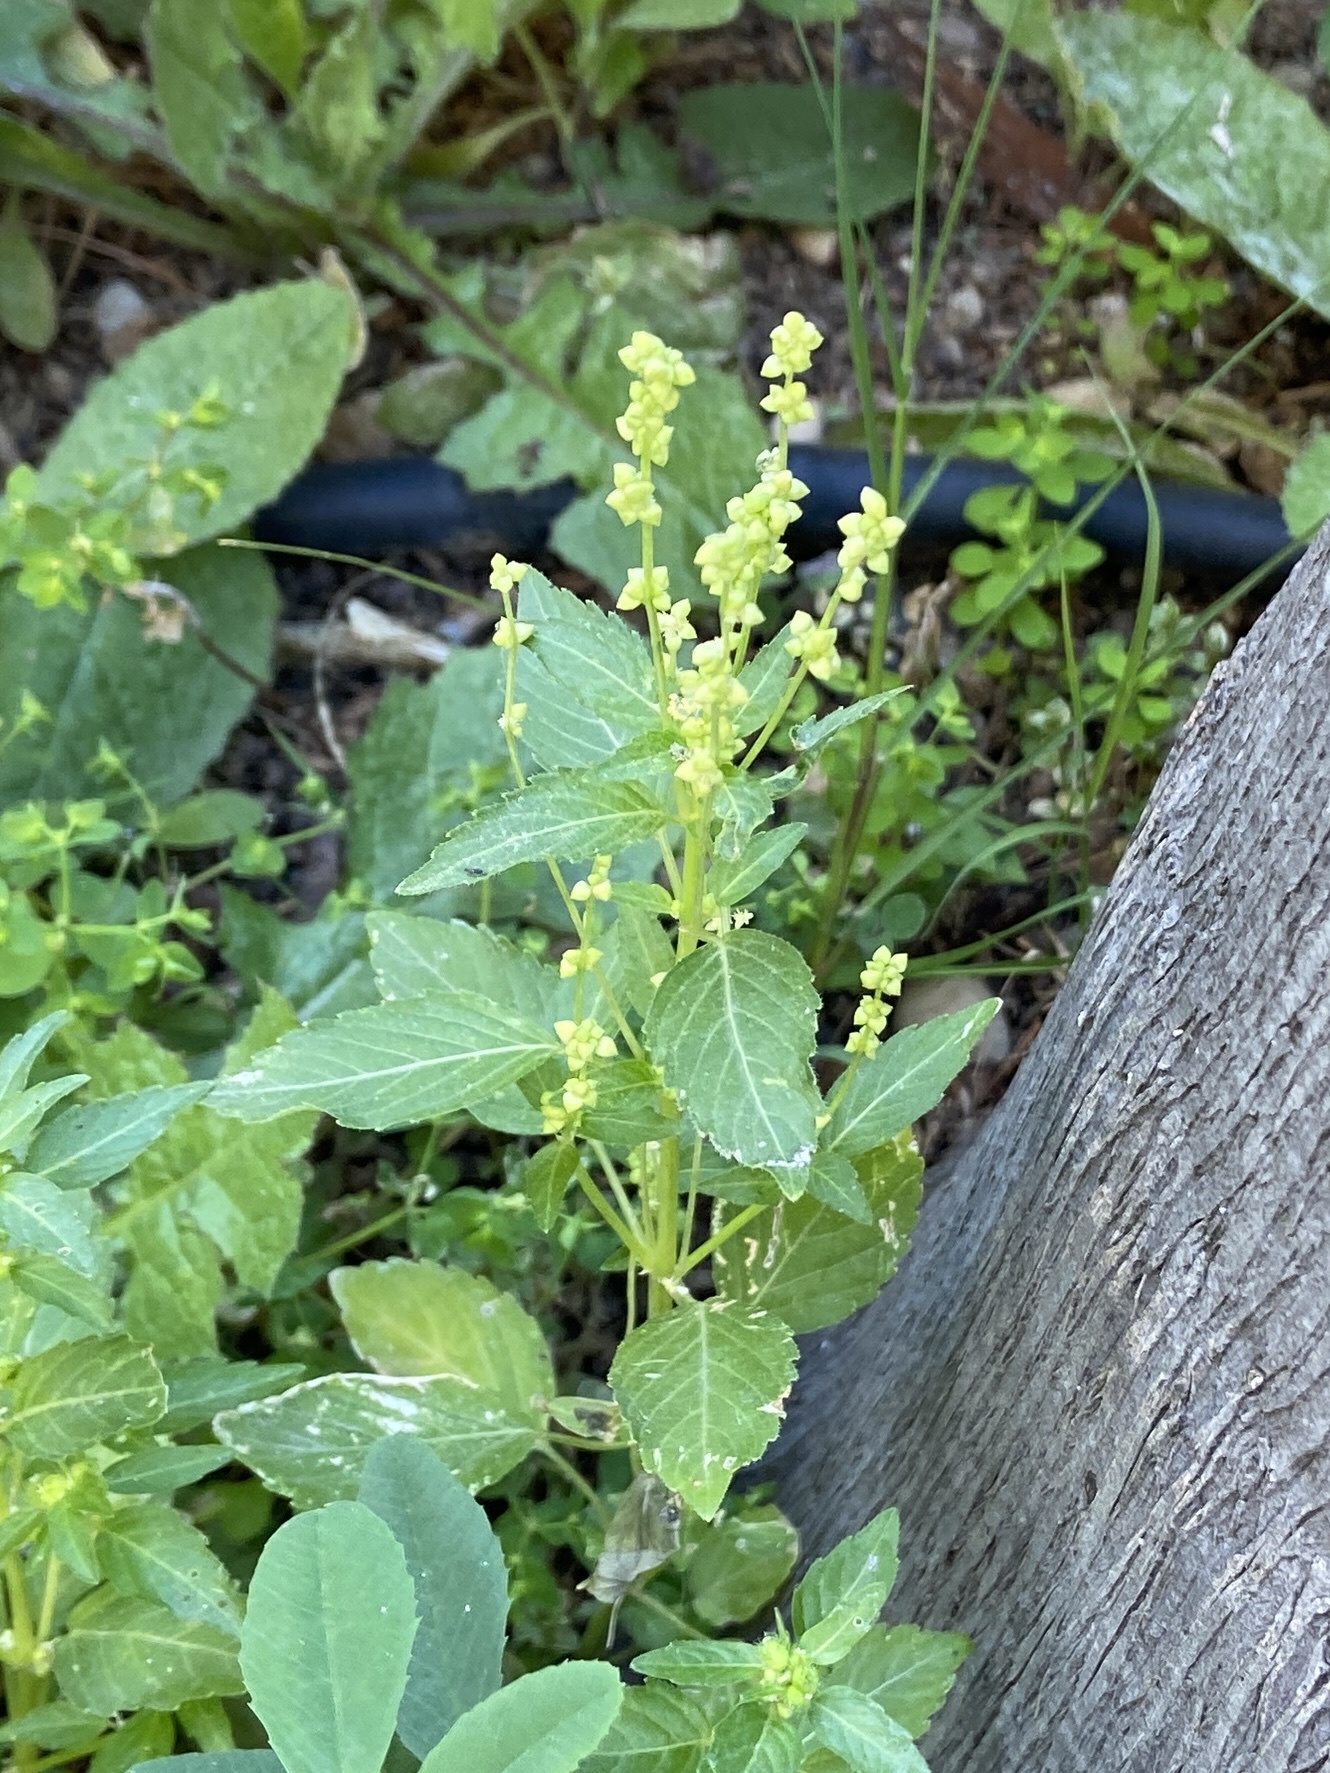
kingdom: Plantae
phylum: Tracheophyta
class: Magnoliopsida
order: Malpighiales
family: Euphorbiaceae
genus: Mercurialis
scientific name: Mercurialis annua
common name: Annual mercury
